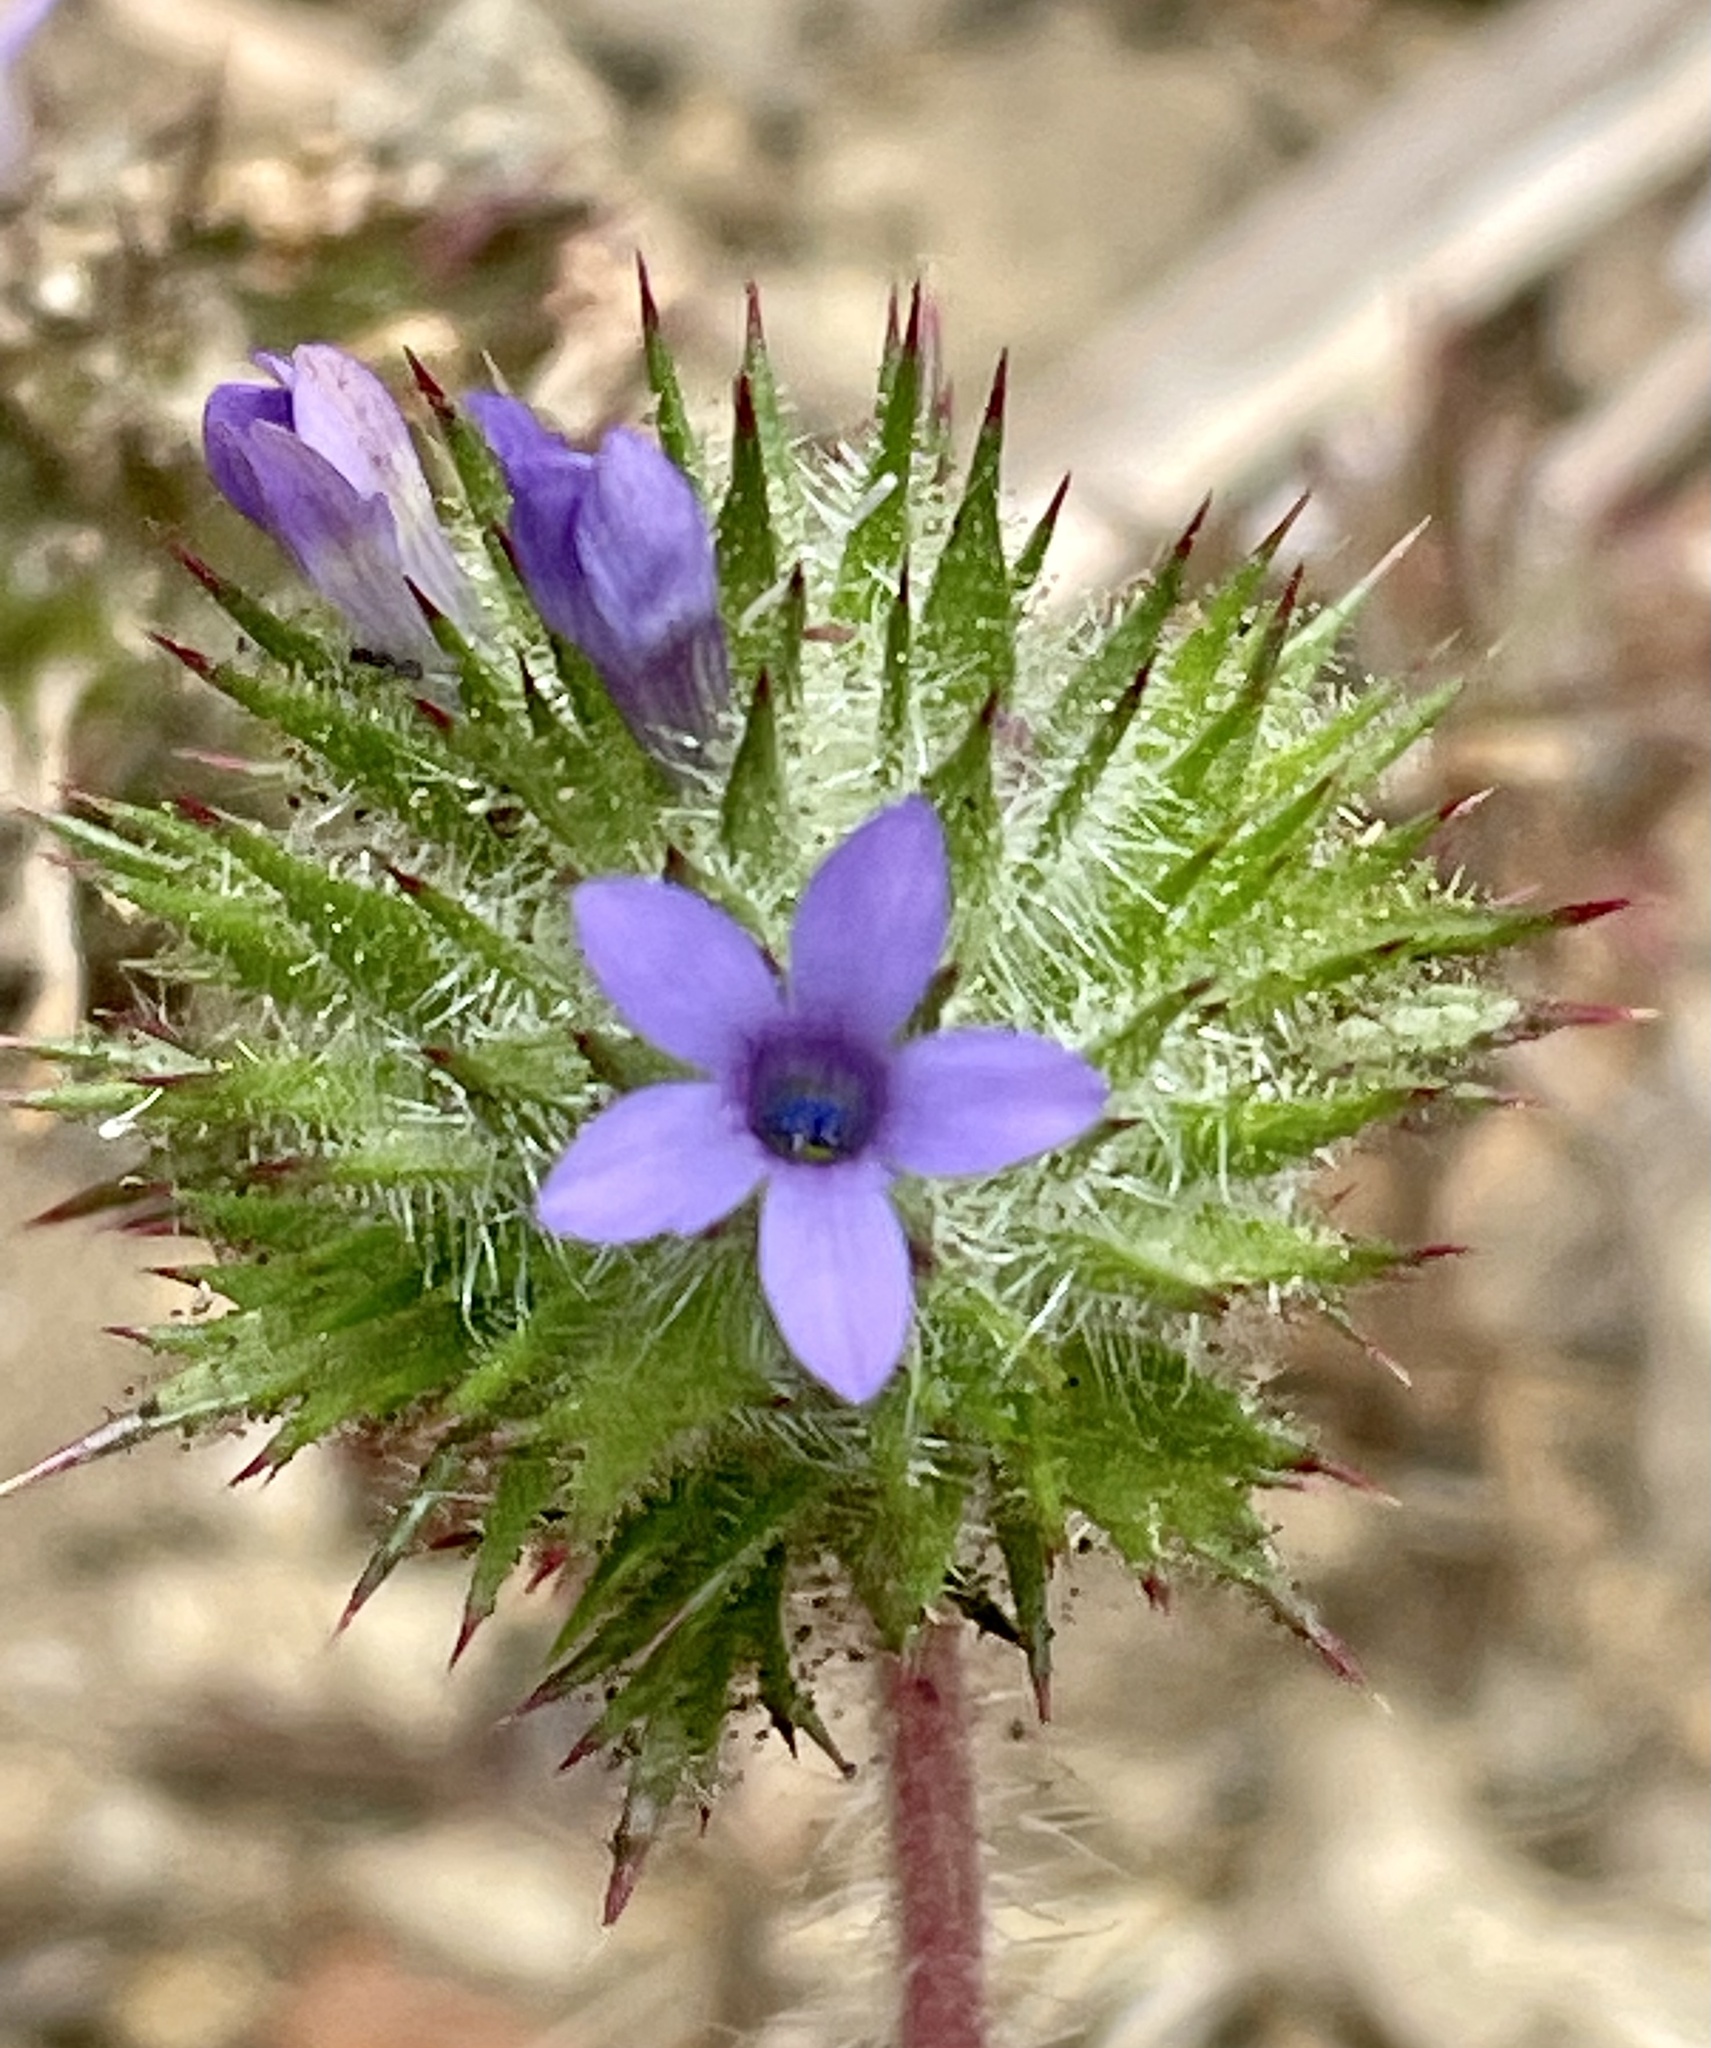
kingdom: Plantae
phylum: Tracheophyta
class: Magnoliopsida
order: Ericales
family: Polemoniaceae
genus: Navarretia
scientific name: Navarretia squarrosa
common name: Skunkweed
